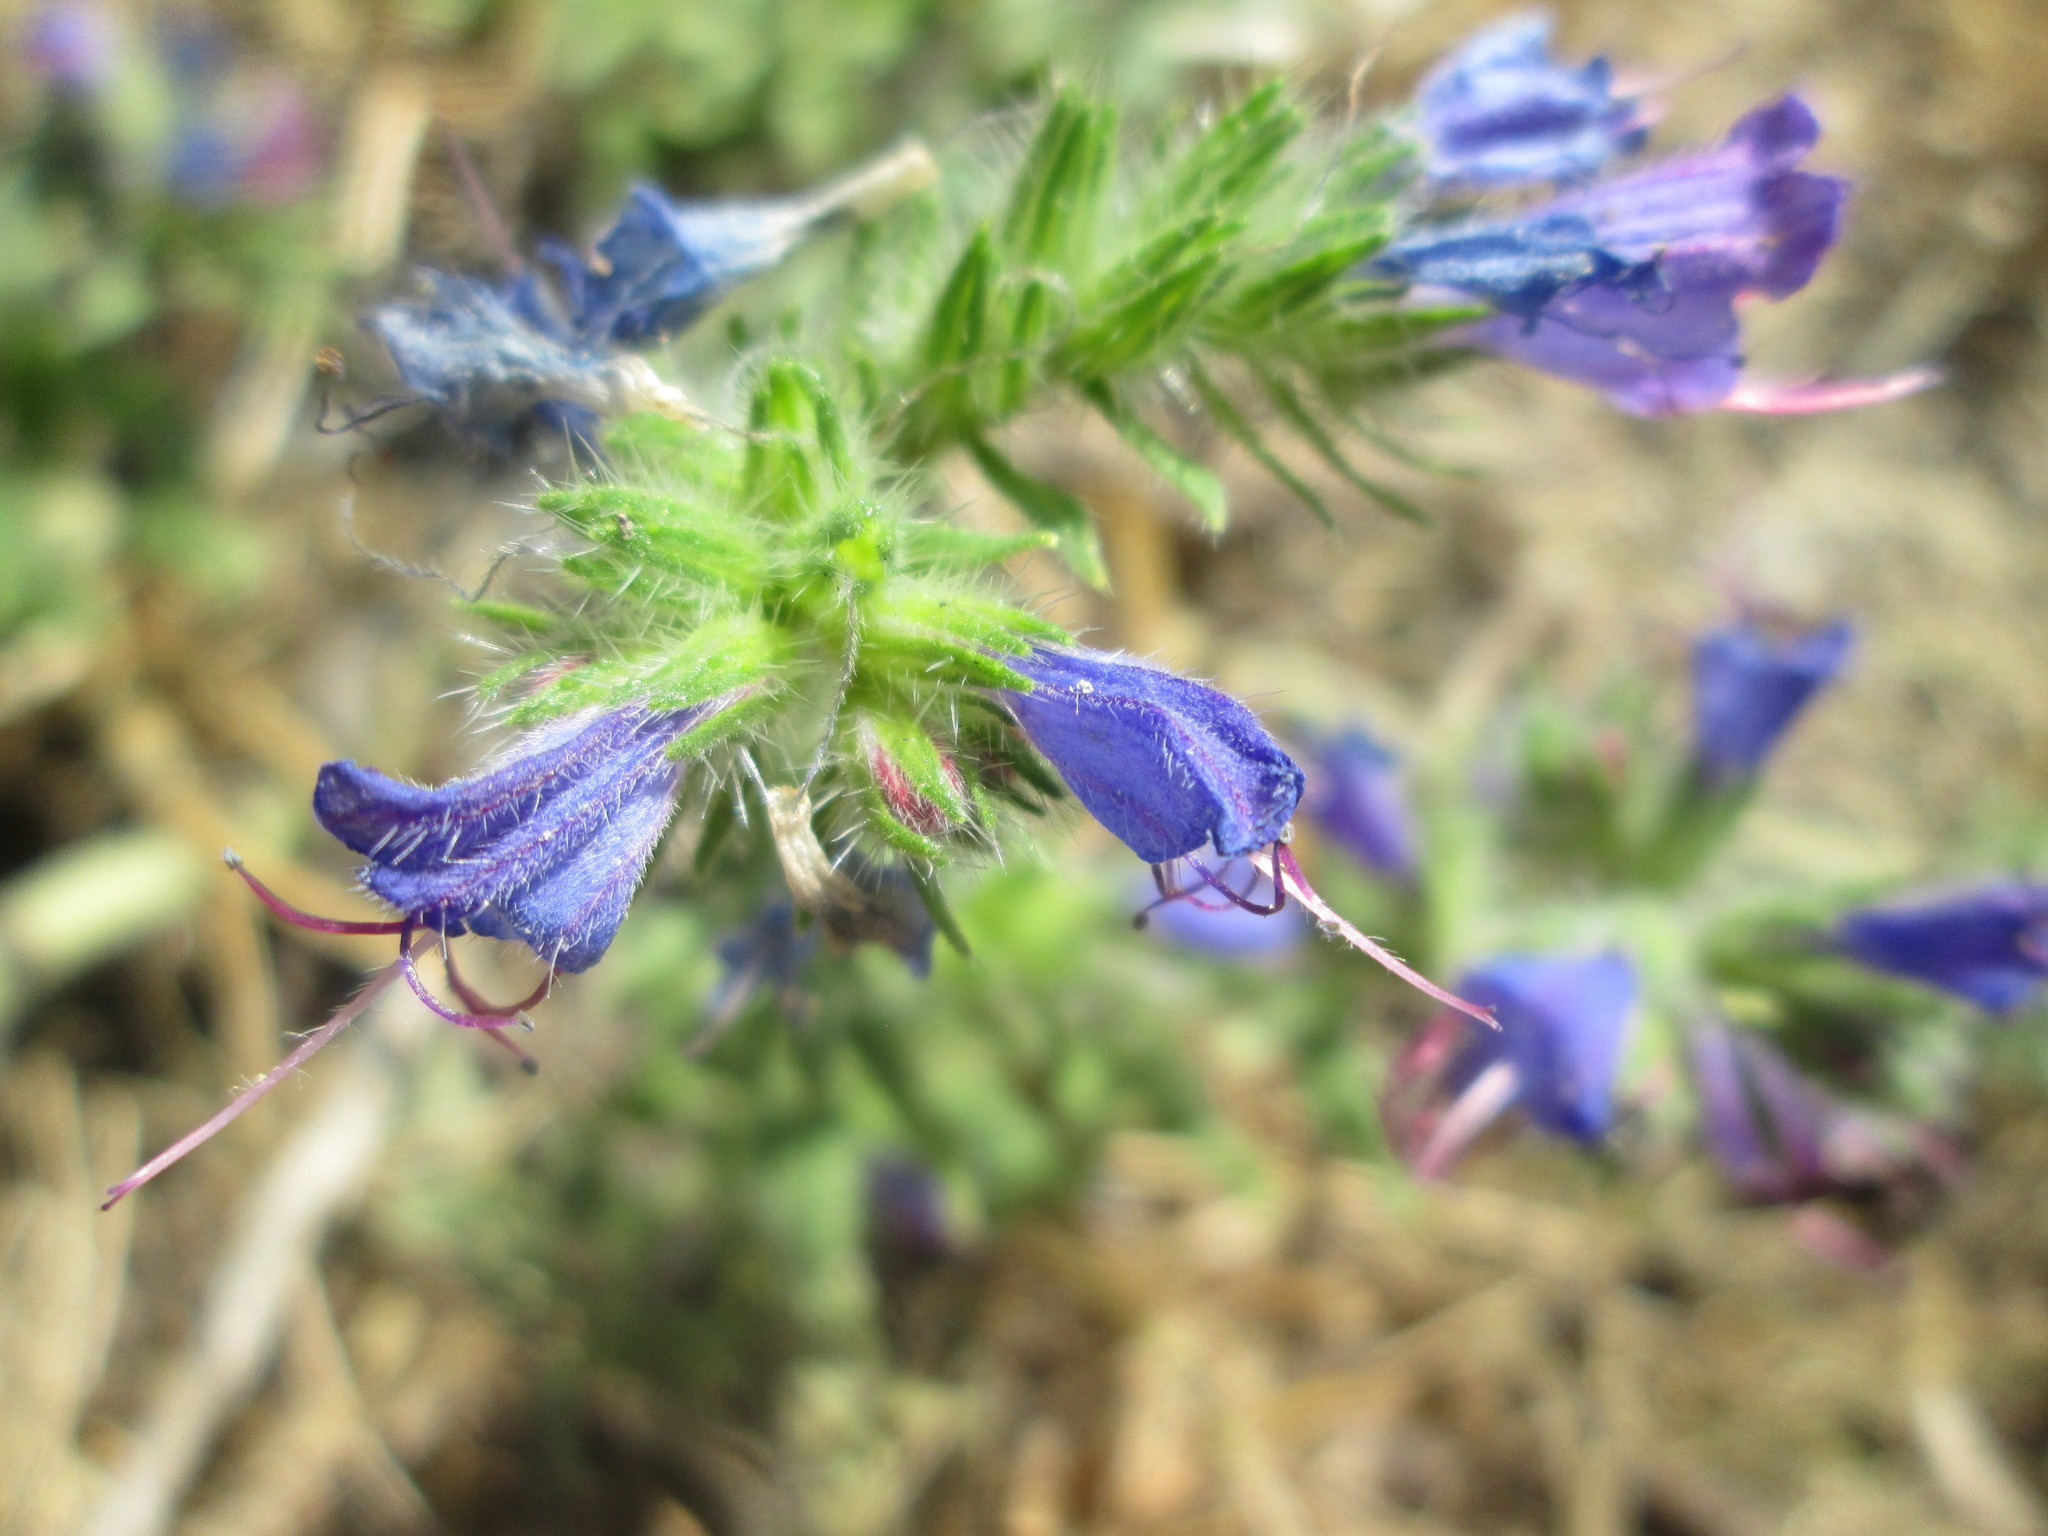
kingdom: Plantae
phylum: Tracheophyta
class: Magnoliopsida
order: Boraginales
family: Boraginaceae
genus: Echium
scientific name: Echium vulgare
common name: Common viper's bugloss
